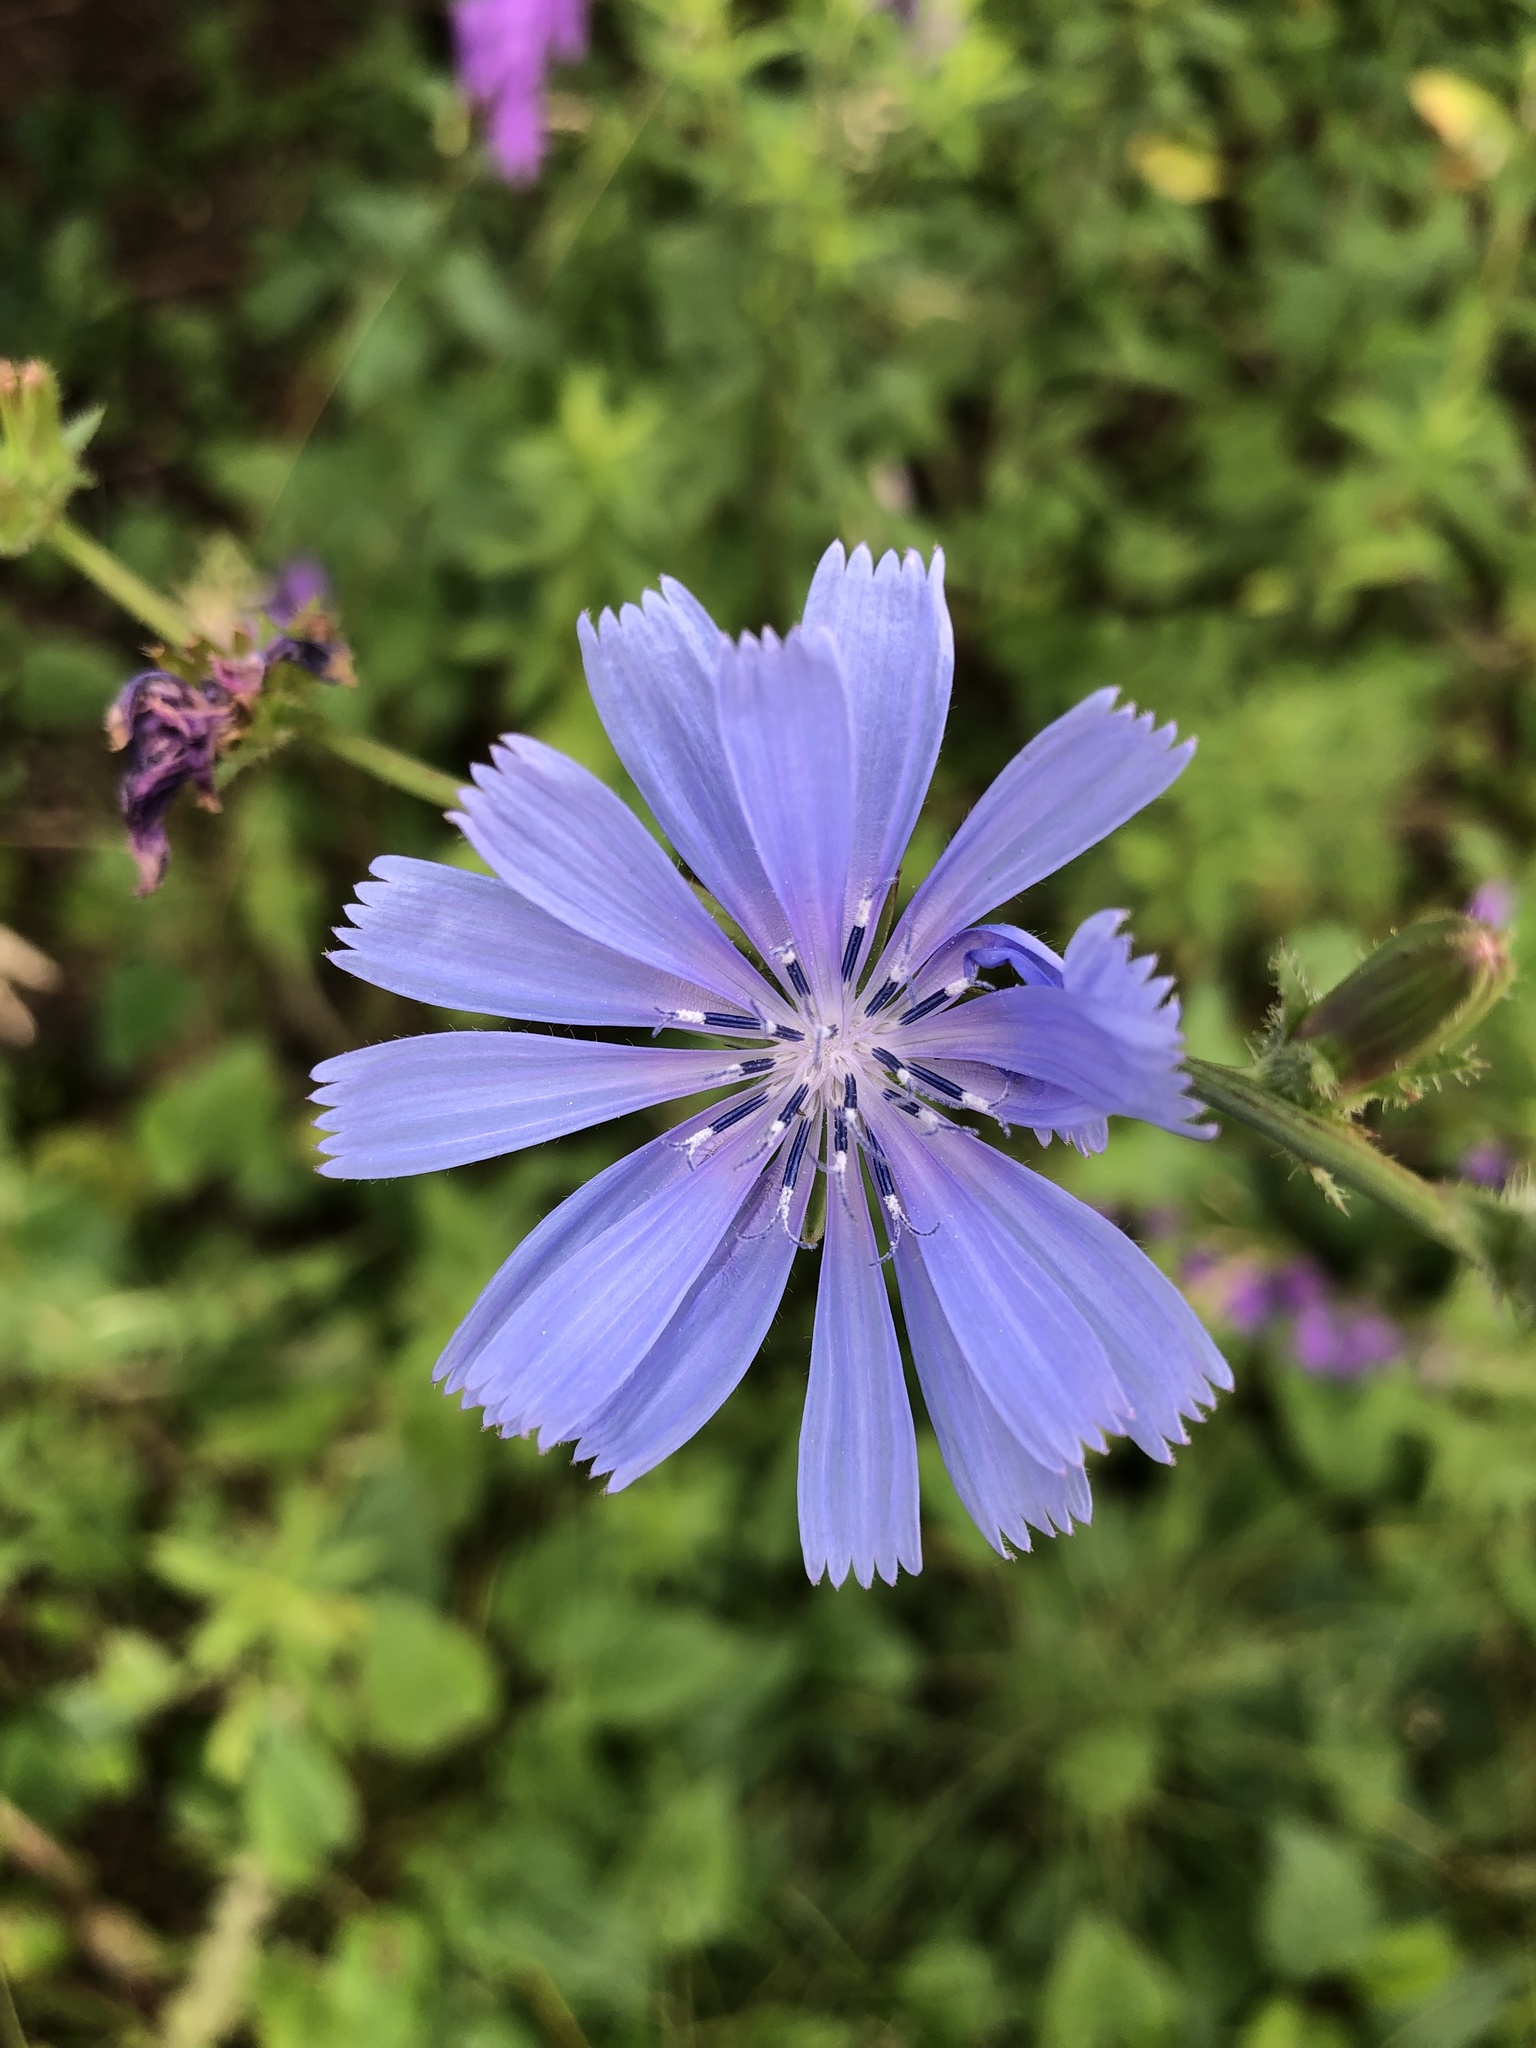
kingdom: Plantae
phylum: Tracheophyta
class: Magnoliopsida
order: Asterales
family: Asteraceae
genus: Cichorium
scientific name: Cichorium intybus
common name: Chicory
